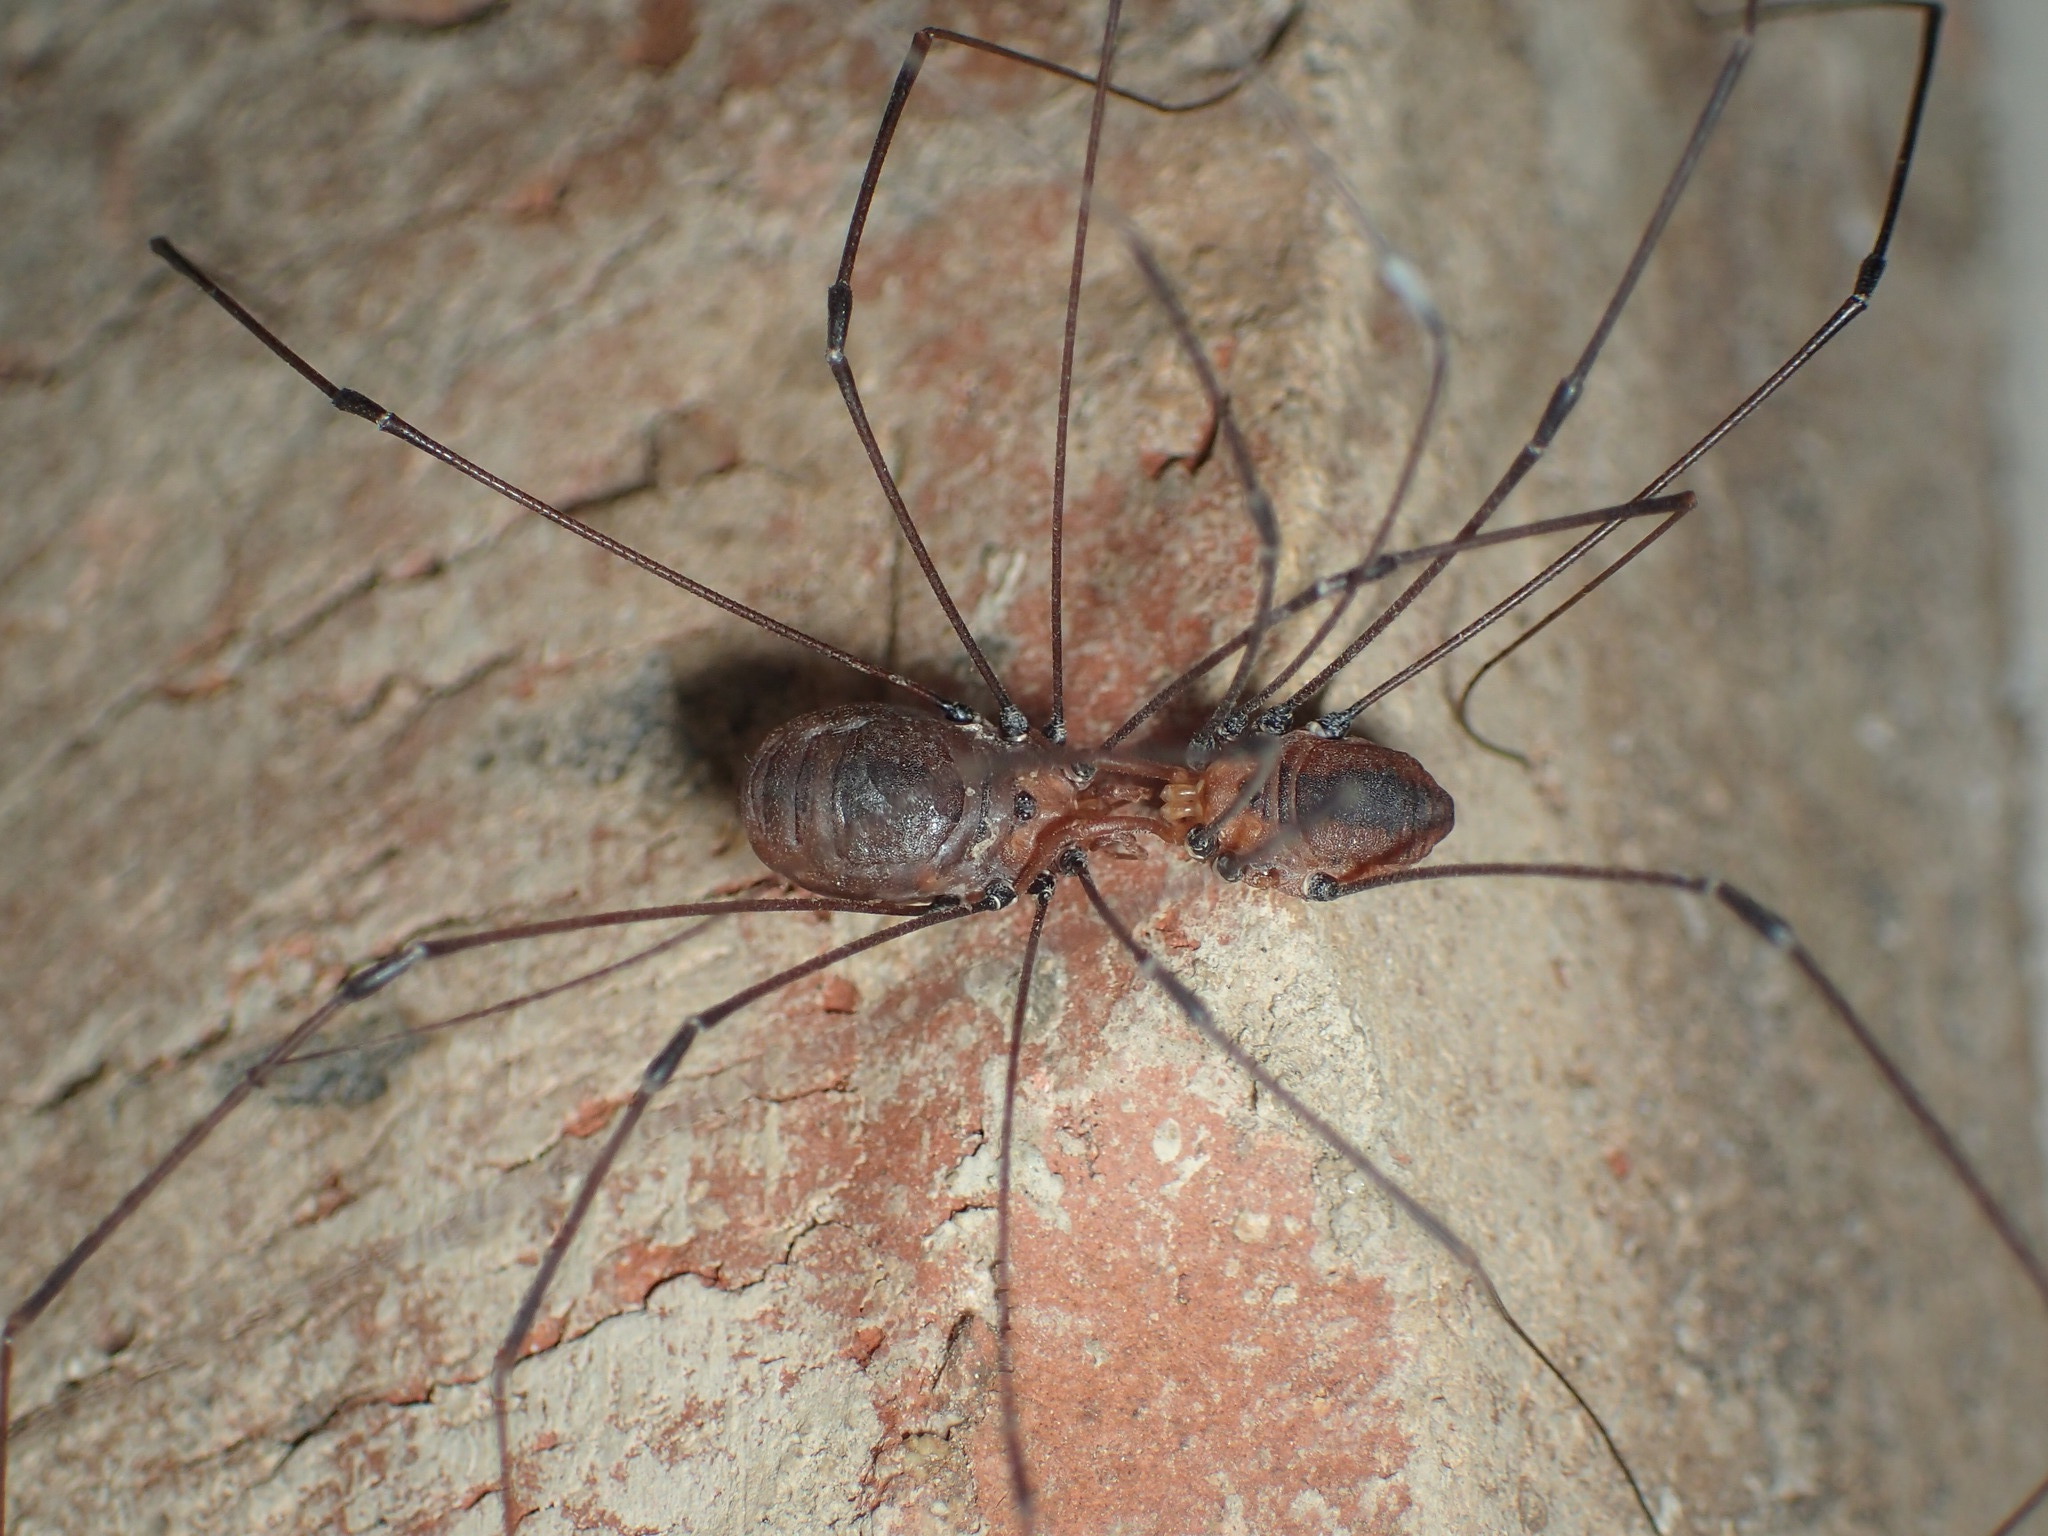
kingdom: Animalia
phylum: Arthropoda
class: Arachnida
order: Opiliones
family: Sclerosomatidae
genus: Leiobunum
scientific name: Leiobunum vittatum
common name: Eastern harvestman
